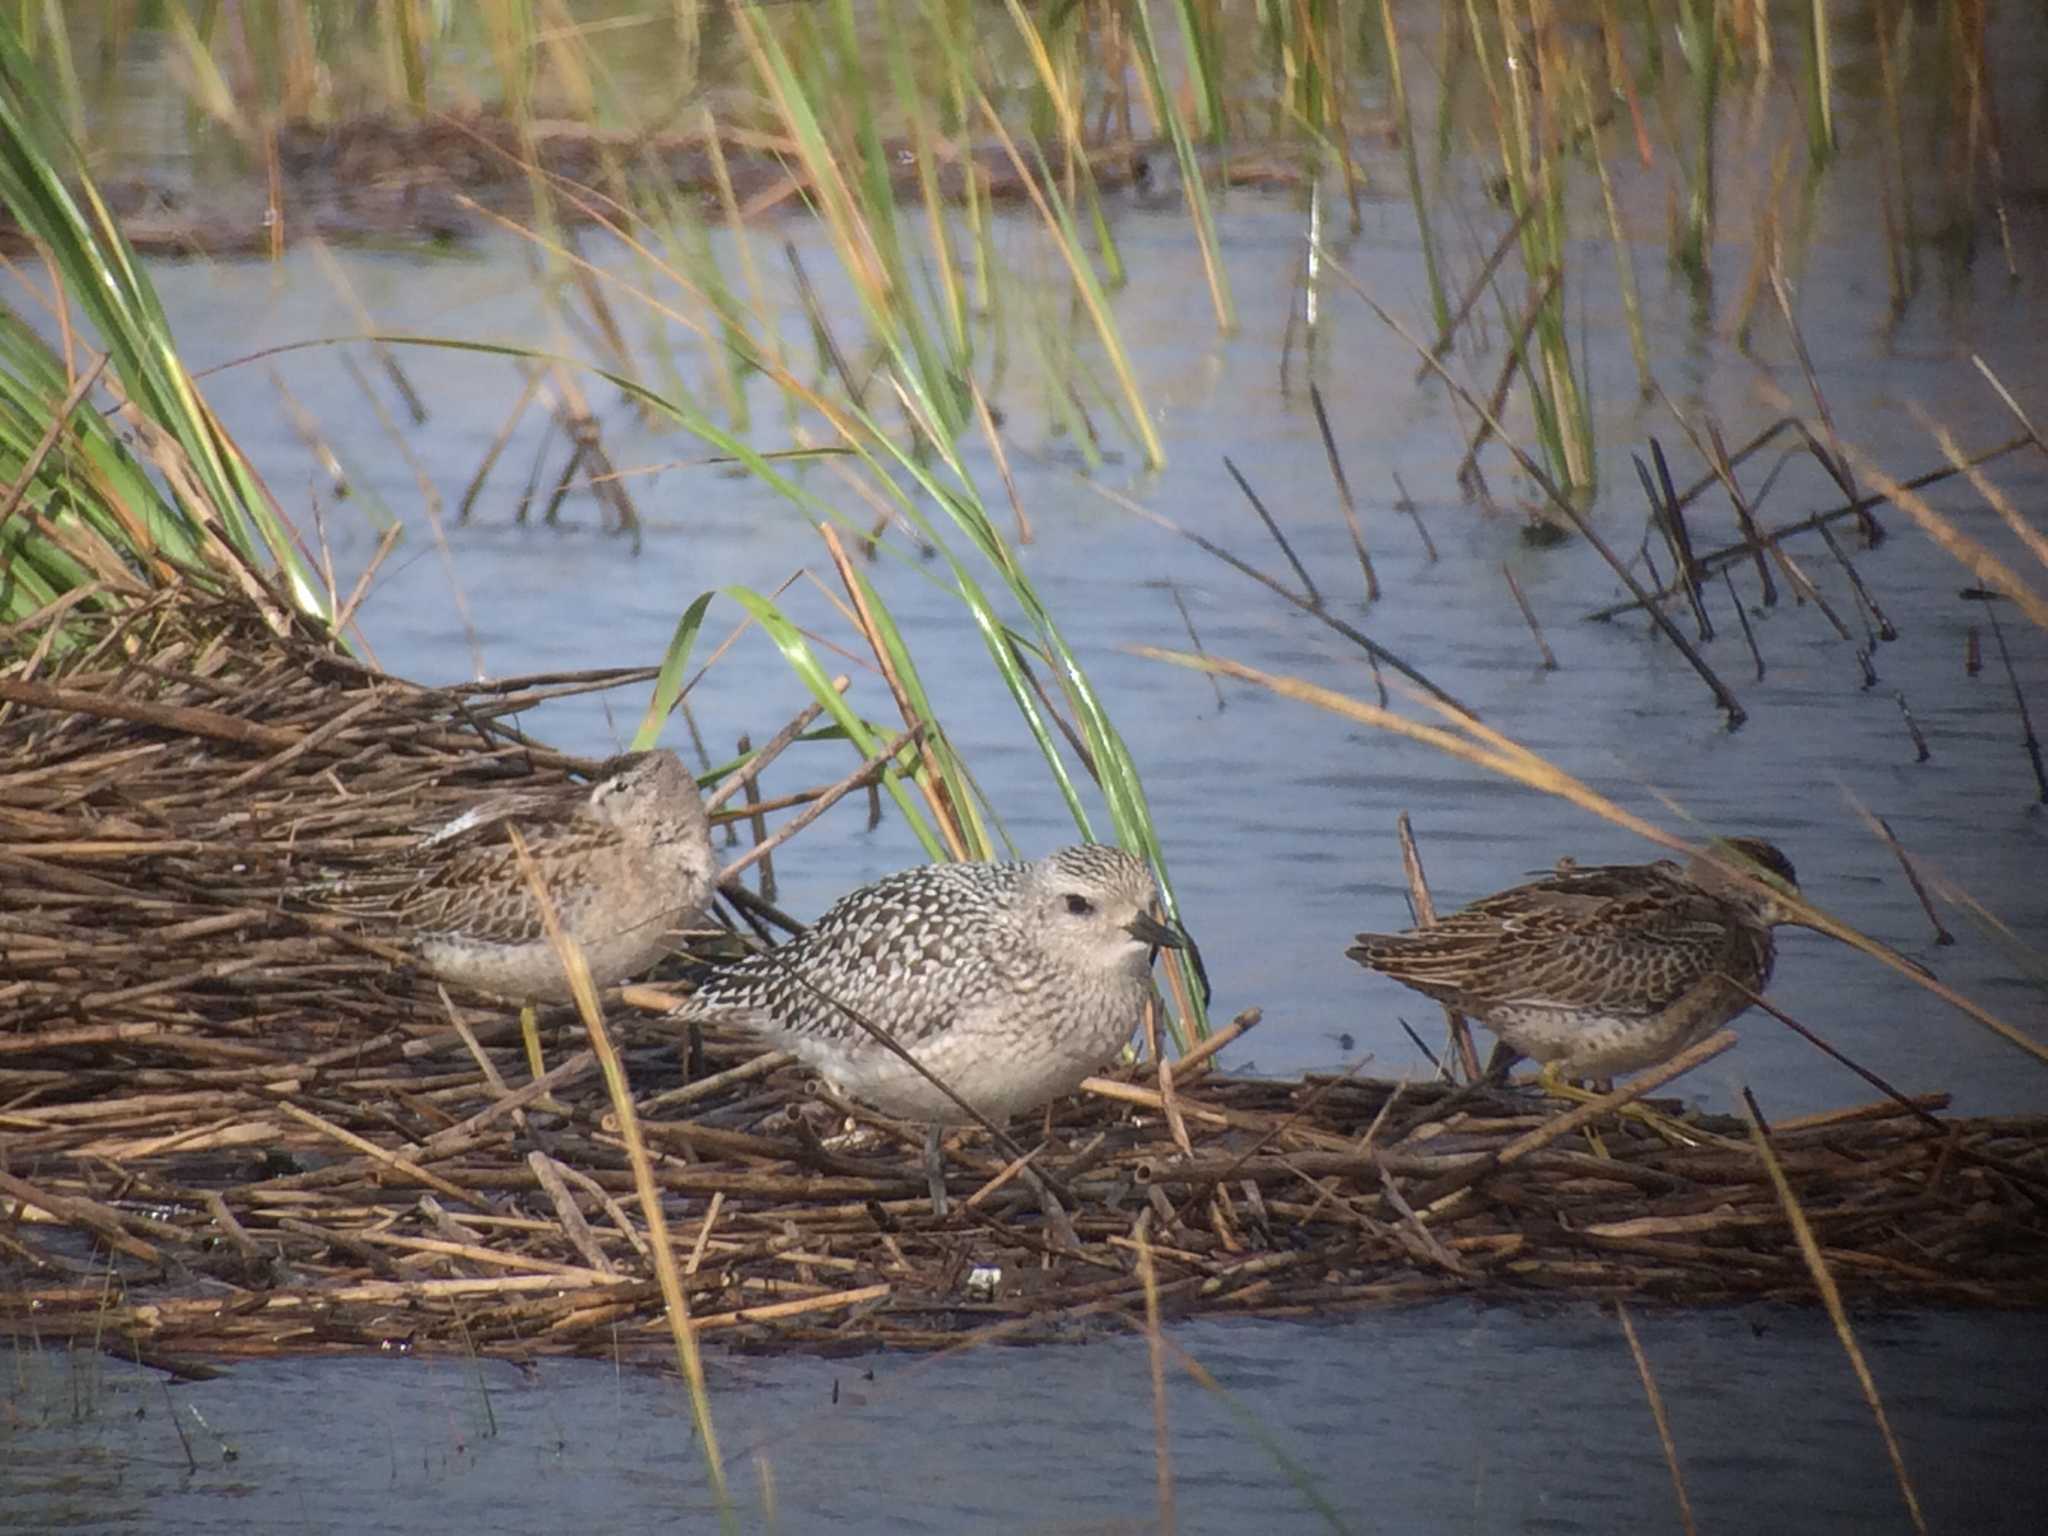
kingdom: Animalia
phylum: Chordata
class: Aves
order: Charadriiformes
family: Scolopacidae
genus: Limnodromus
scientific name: Limnodromus griseus
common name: Short-billed dowitcher
